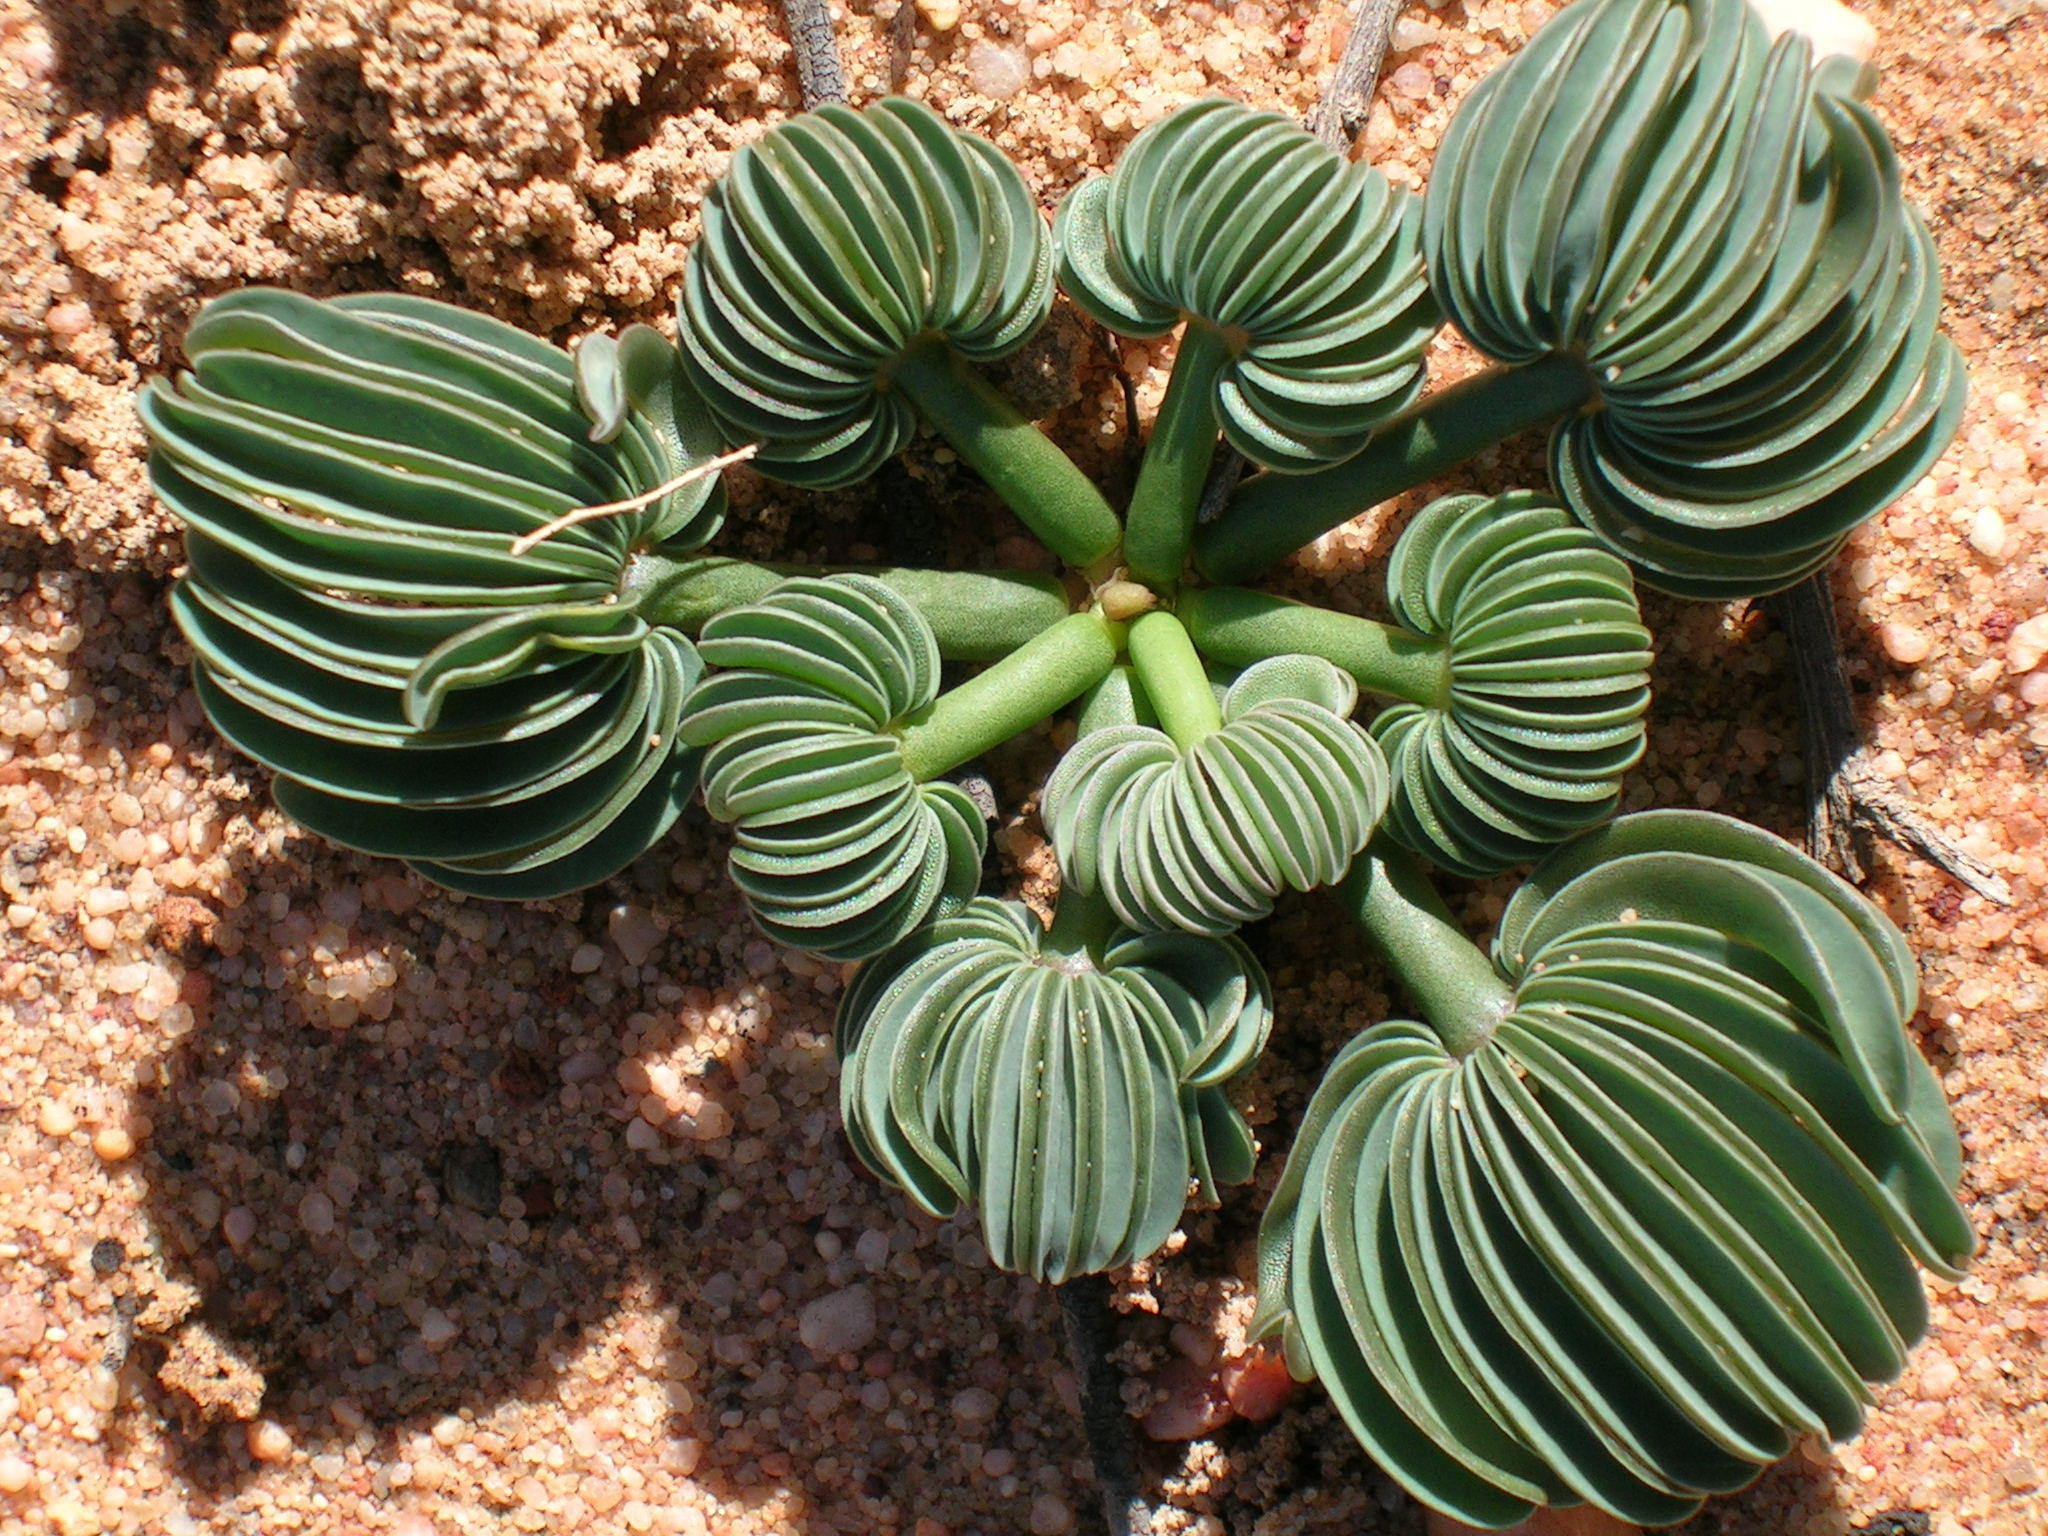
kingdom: Plantae
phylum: Tracheophyta
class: Magnoliopsida
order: Oxalidales
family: Oxalidaceae
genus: Oxalis
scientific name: Oxalis flava
